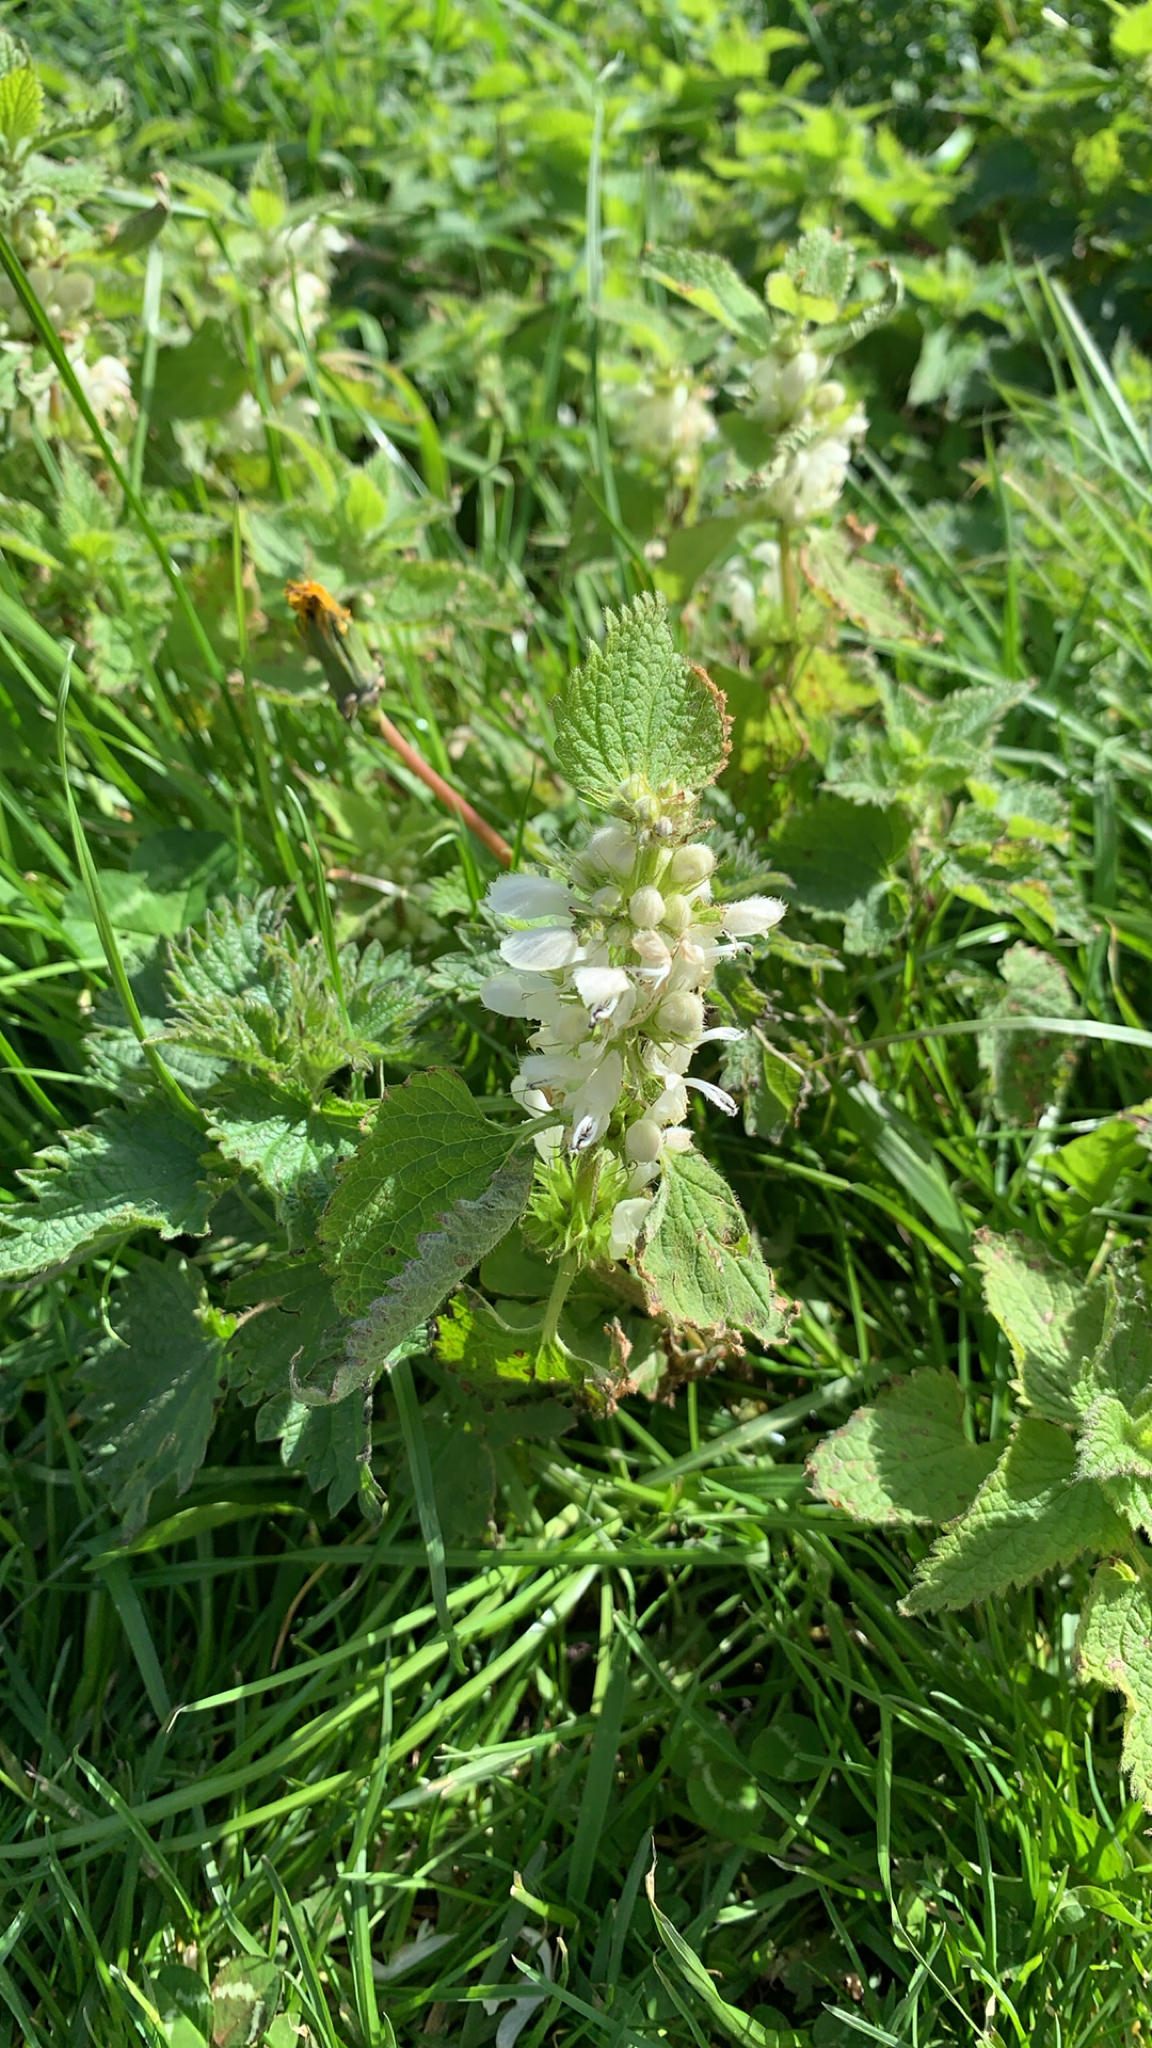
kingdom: Plantae
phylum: Tracheophyta
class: Magnoliopsida
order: Lamiales
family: Lamiaceae
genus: Lamium
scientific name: Lamium album
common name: White dead-nettle
